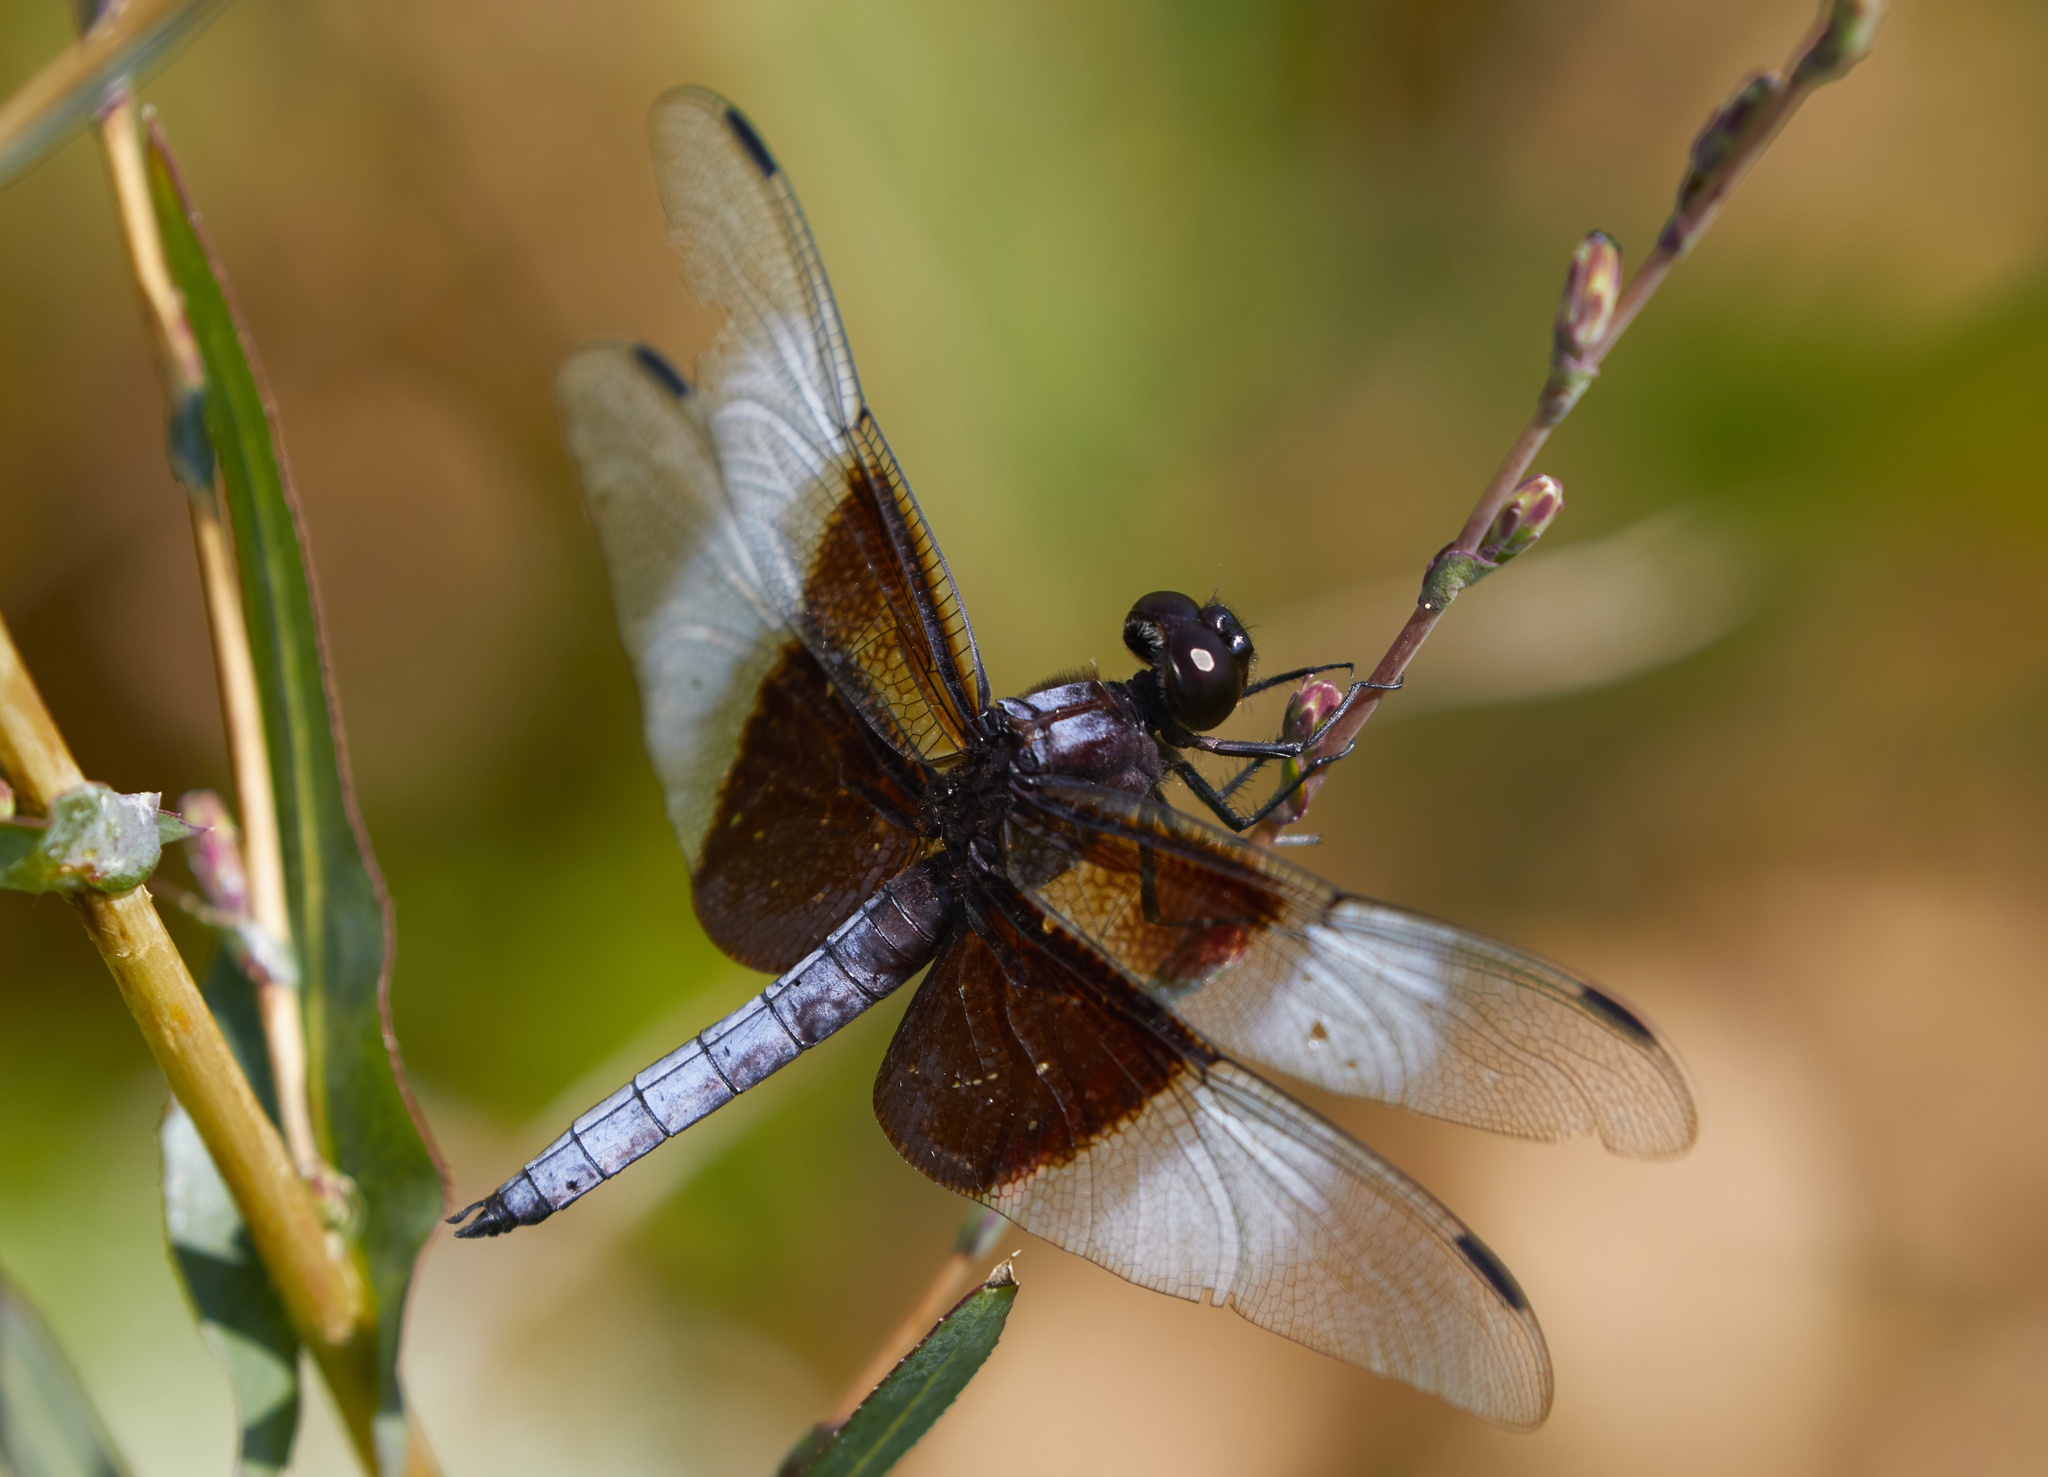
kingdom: Animalia
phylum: Arthropoda
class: Insecta
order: Odonata
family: Libellulidae
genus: Libellula
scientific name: Libellula luctuosa
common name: Widow skimmer
